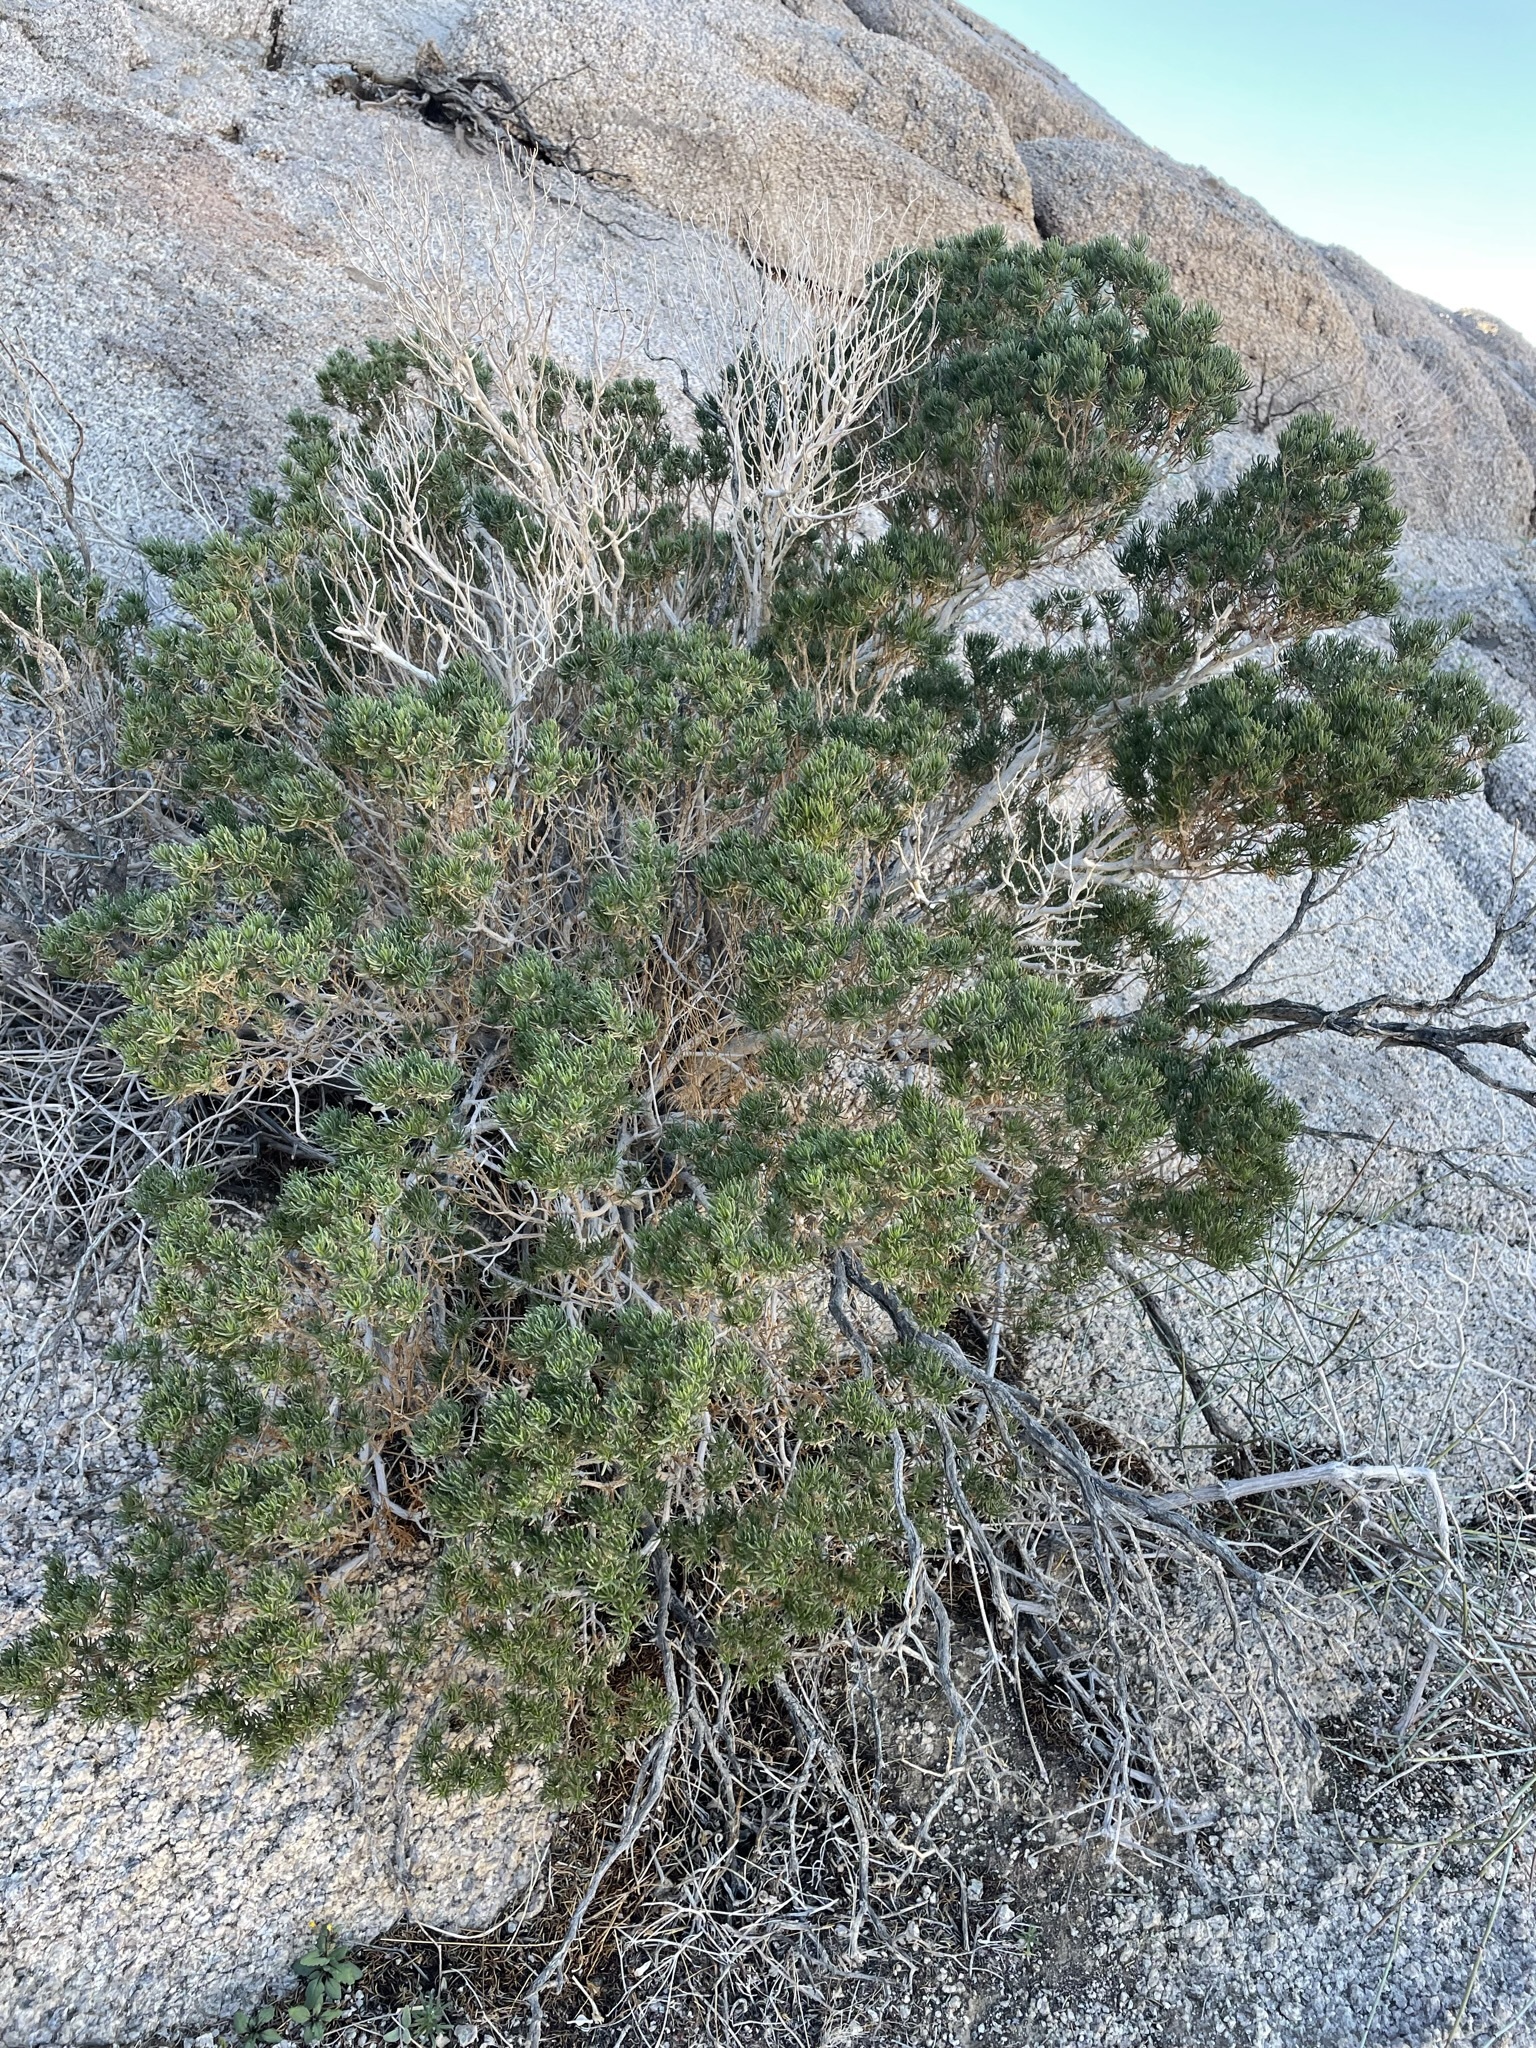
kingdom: Plantae
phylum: Tracheophyta
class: Magnoliopsida
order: Asterales
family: Asteraceae
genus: Peucephyllum
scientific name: Peucephyllum schottii
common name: Pygmy-cedar
